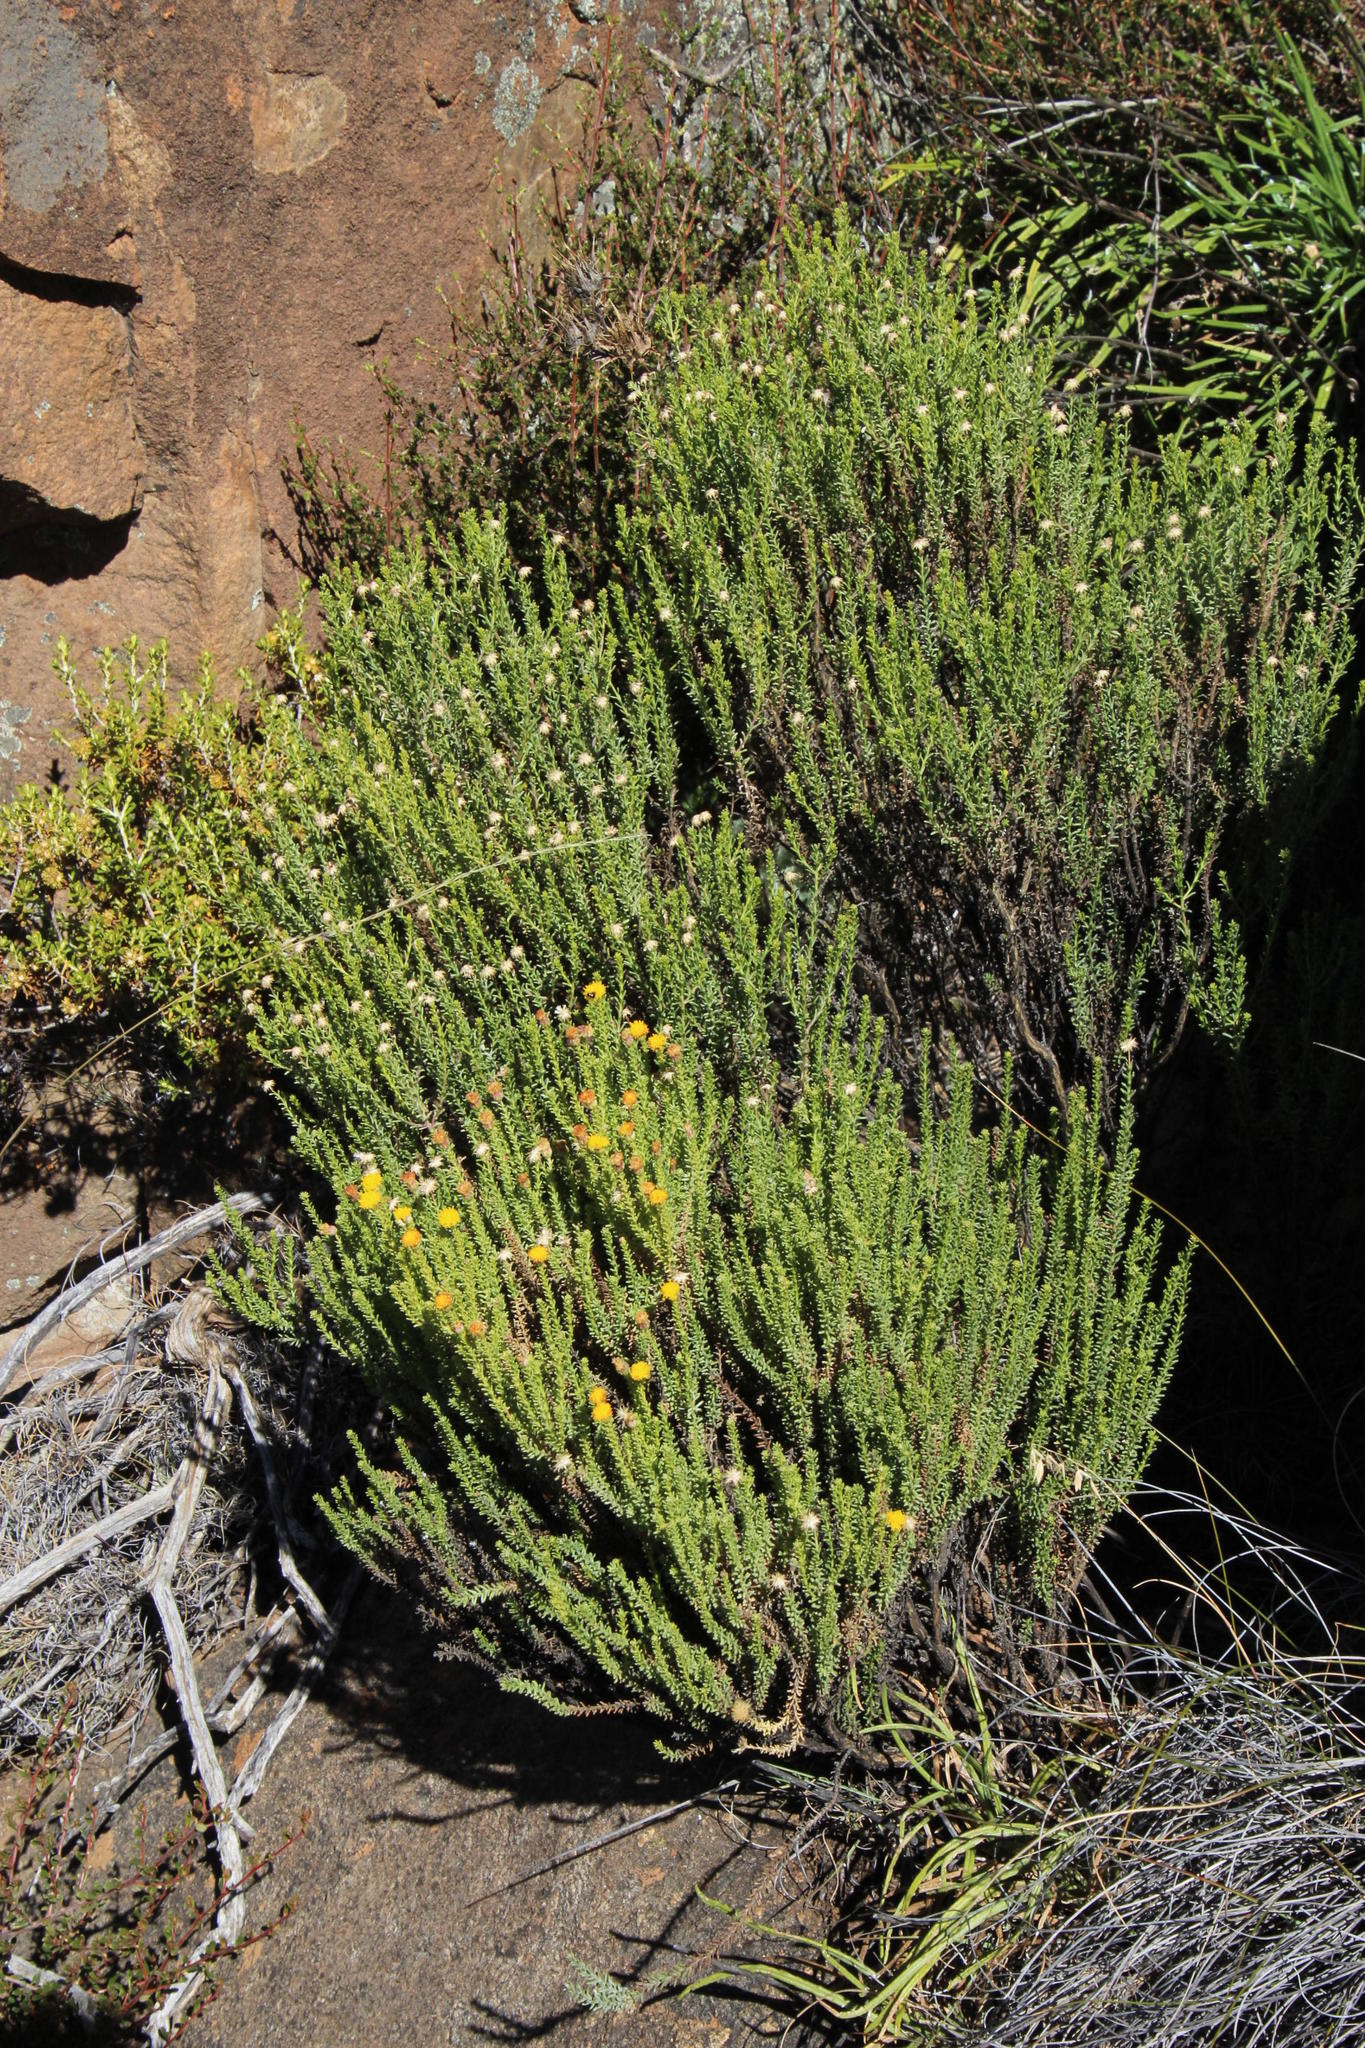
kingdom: Plantae
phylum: Tracheophyta
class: Magnoliopsida
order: Asterales
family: Asteraceae
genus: Chrysocoma
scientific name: Chrysocoma ciliata
